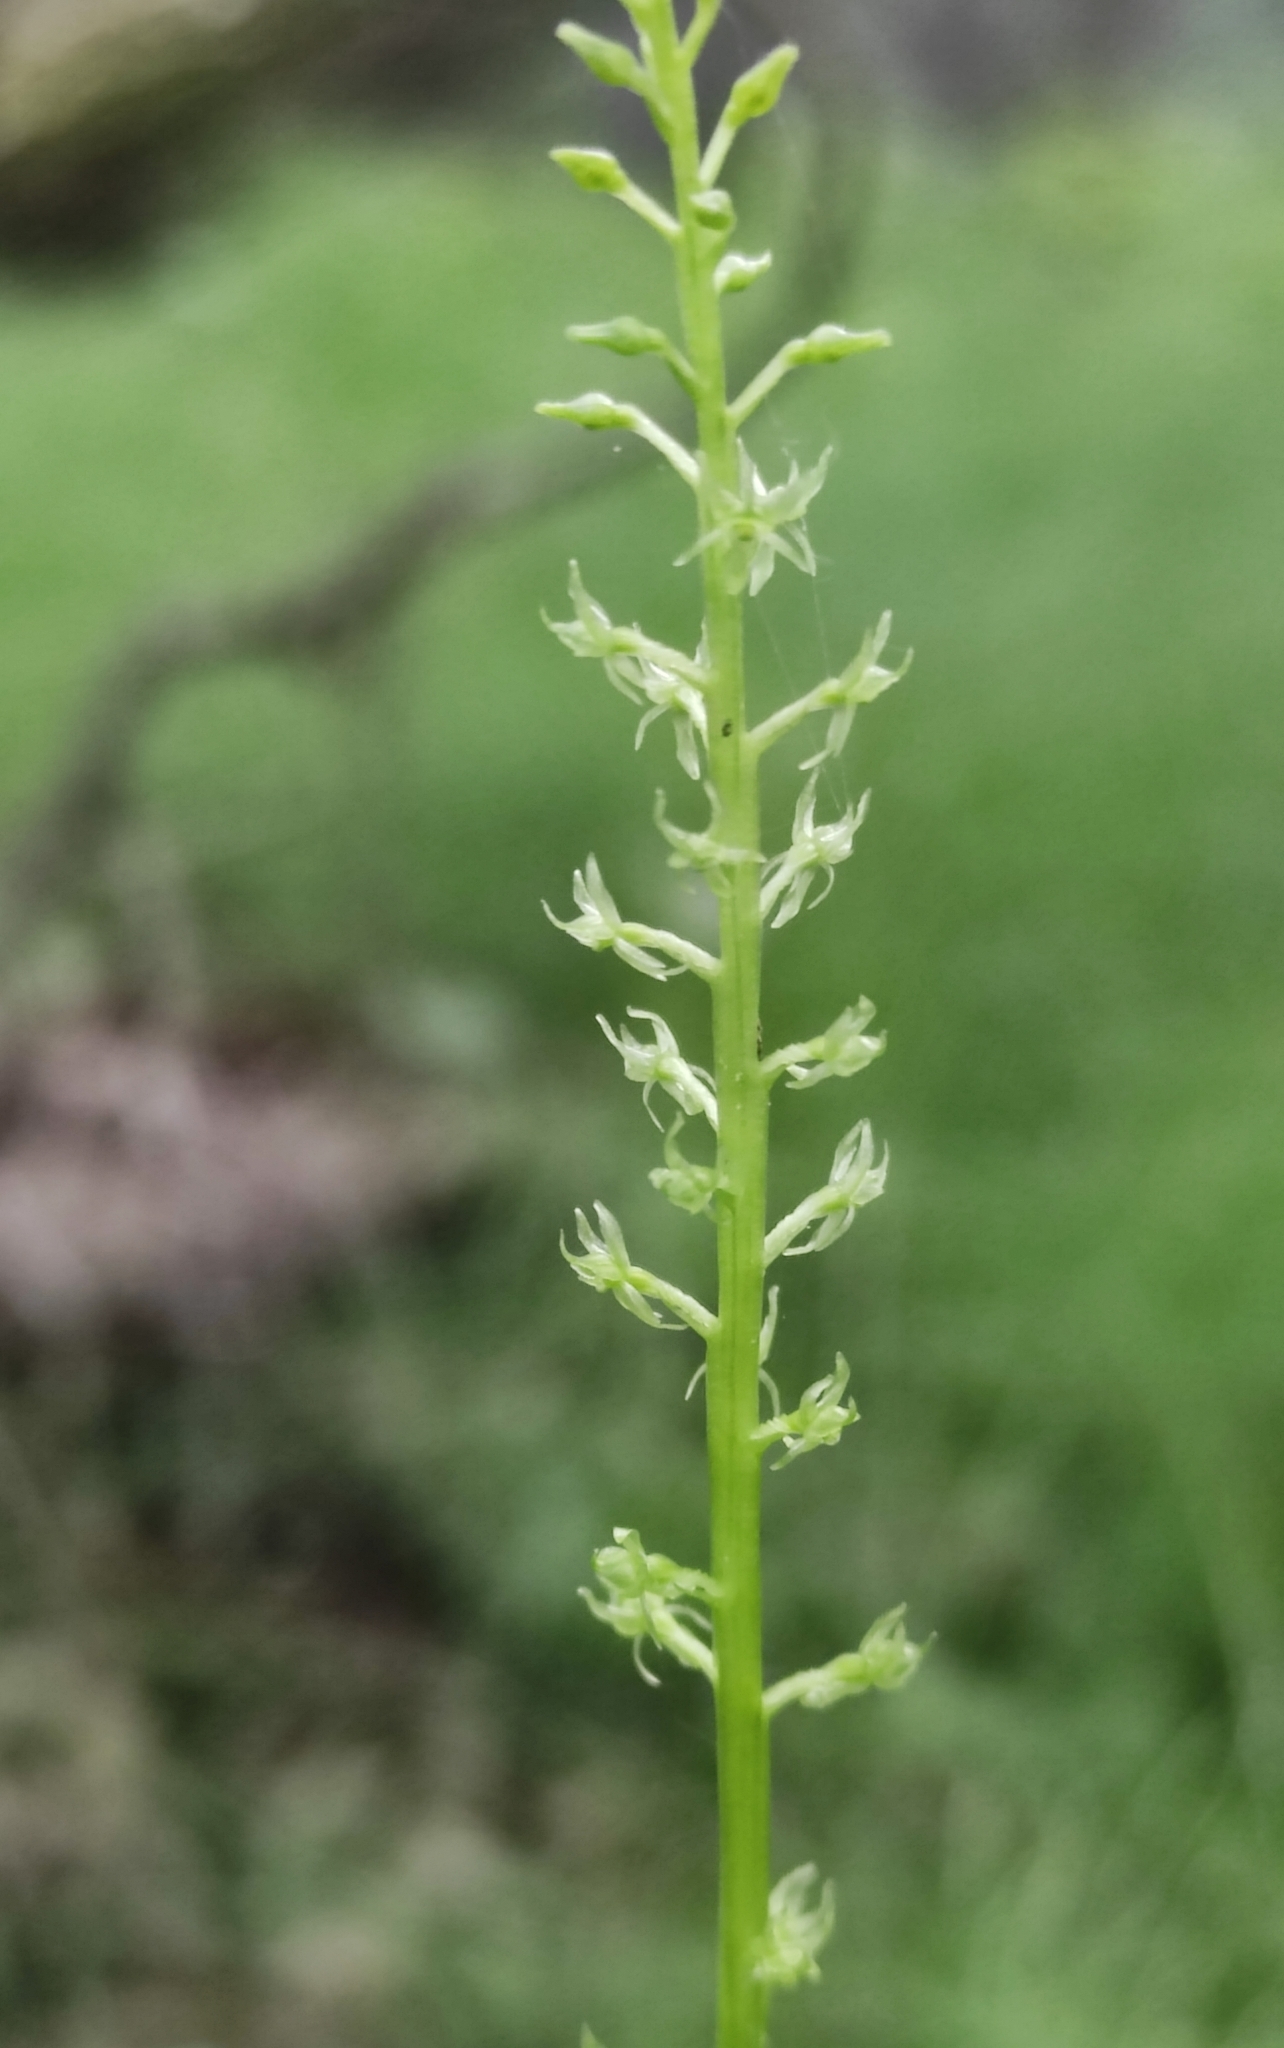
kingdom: Plantae
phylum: Tracheophyta
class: Liliopsida
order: Asparagales
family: Orchidaceae
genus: Malaxis
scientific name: Malaxis monophyllos
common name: White adder's-mouth
